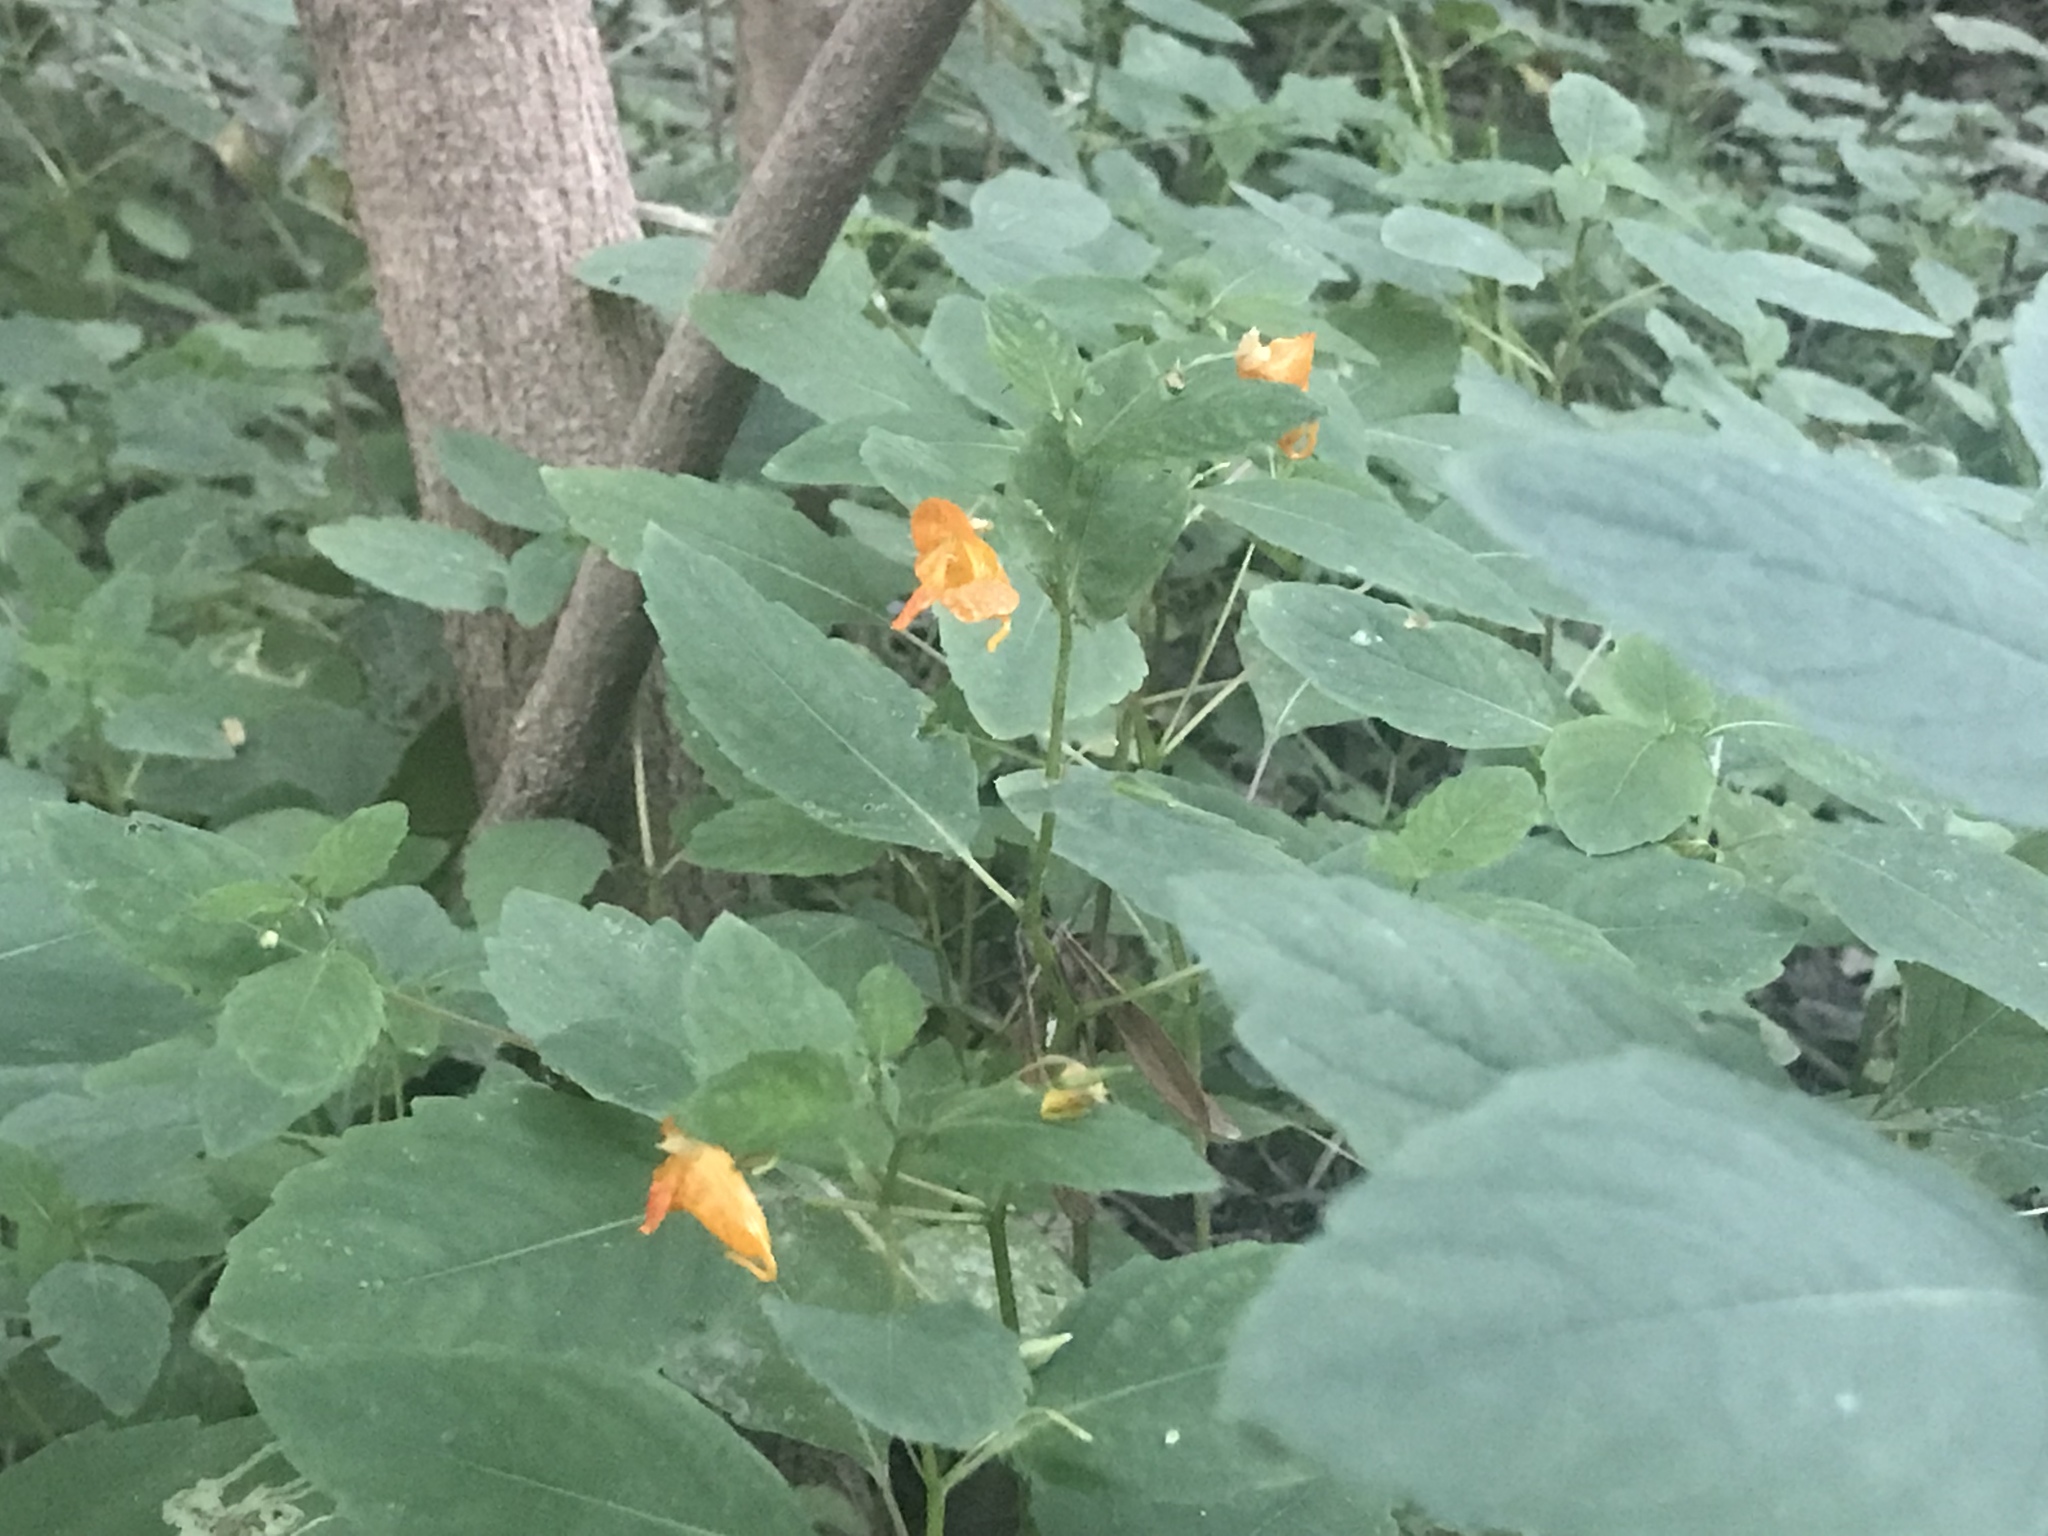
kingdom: Plantae
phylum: Tracheophyta
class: Magnoliopsida
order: Ericales
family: Balsaminaceae
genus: Impatiens
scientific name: Impatiens capensis
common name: Orange balsam
